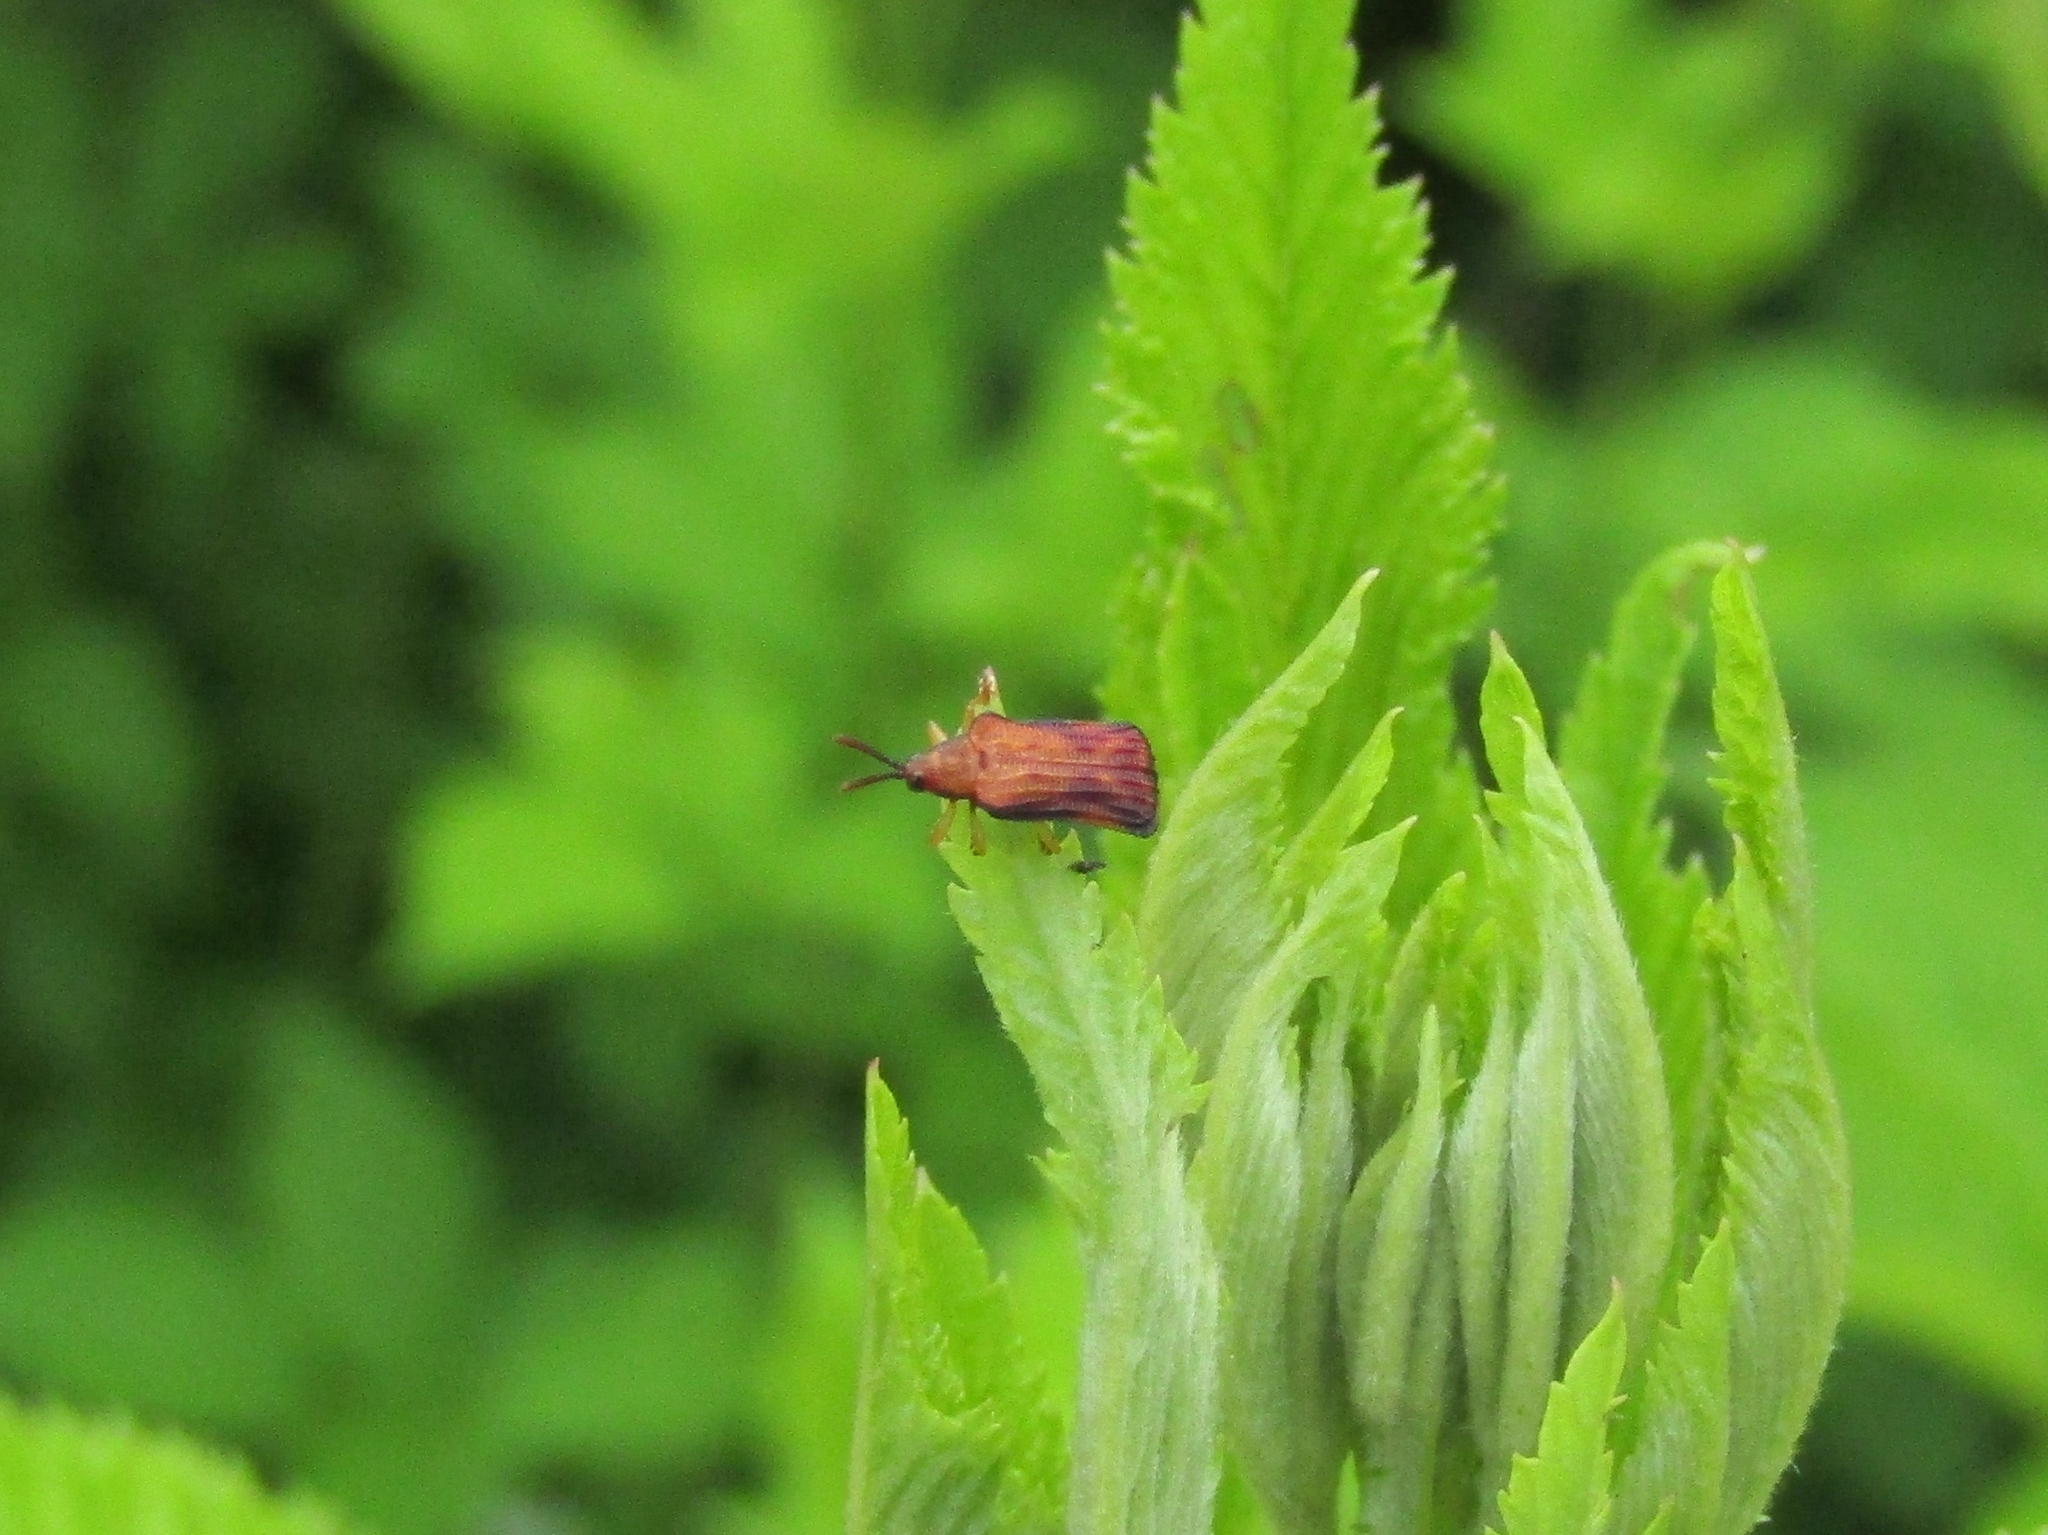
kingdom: Animalia
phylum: Arthropoda
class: Insecta
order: Coleoptera
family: Chrysomelidae
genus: Baliosus
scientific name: Baliosus nervosus
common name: Basswood leaf miner
